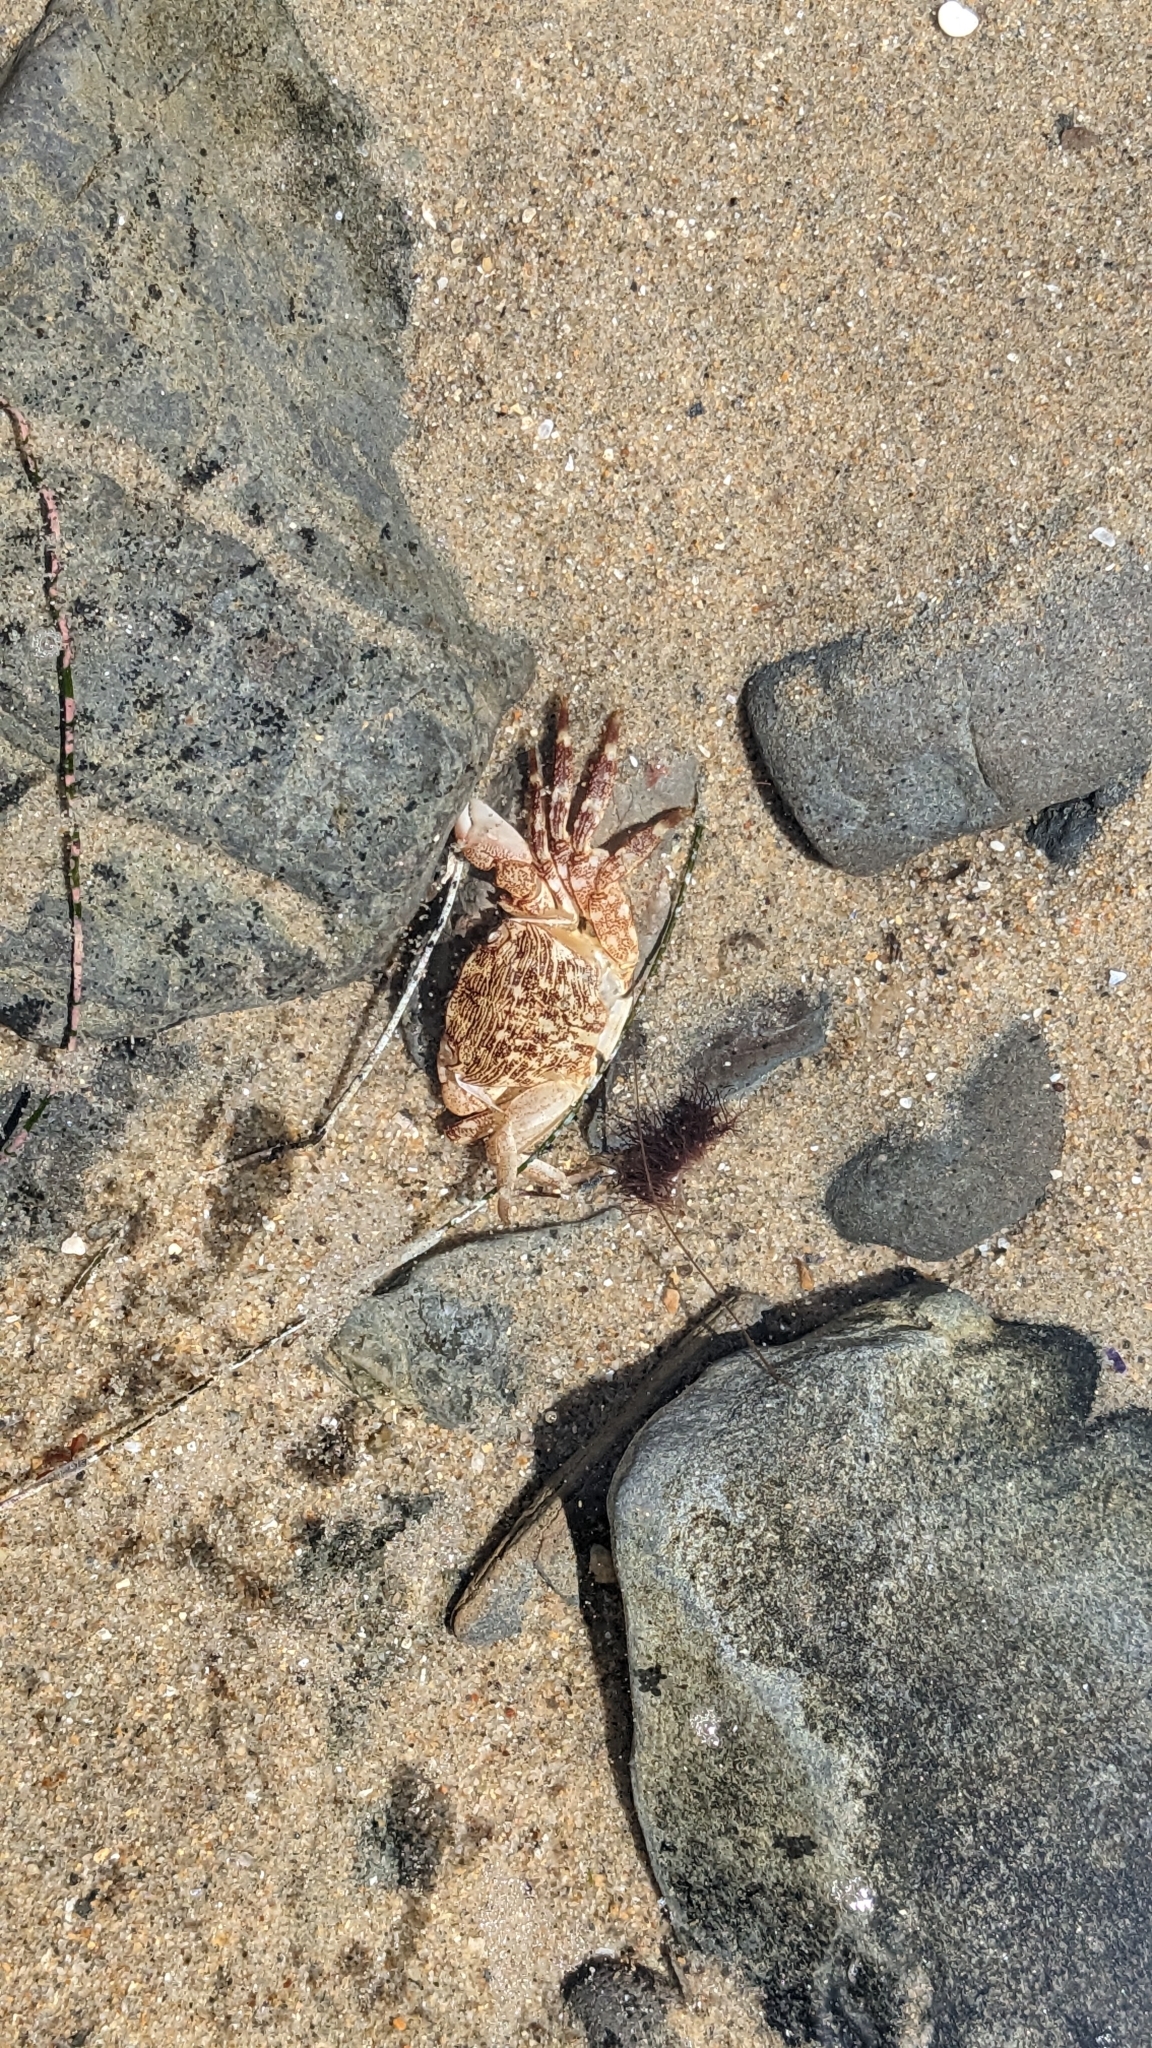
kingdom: Animalia
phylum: Arthropoda
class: Malacostraca
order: Decapoda
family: Grapsidae
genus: Pachygrapsus
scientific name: Pachygrapsus crassipes
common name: Striped shore crab
